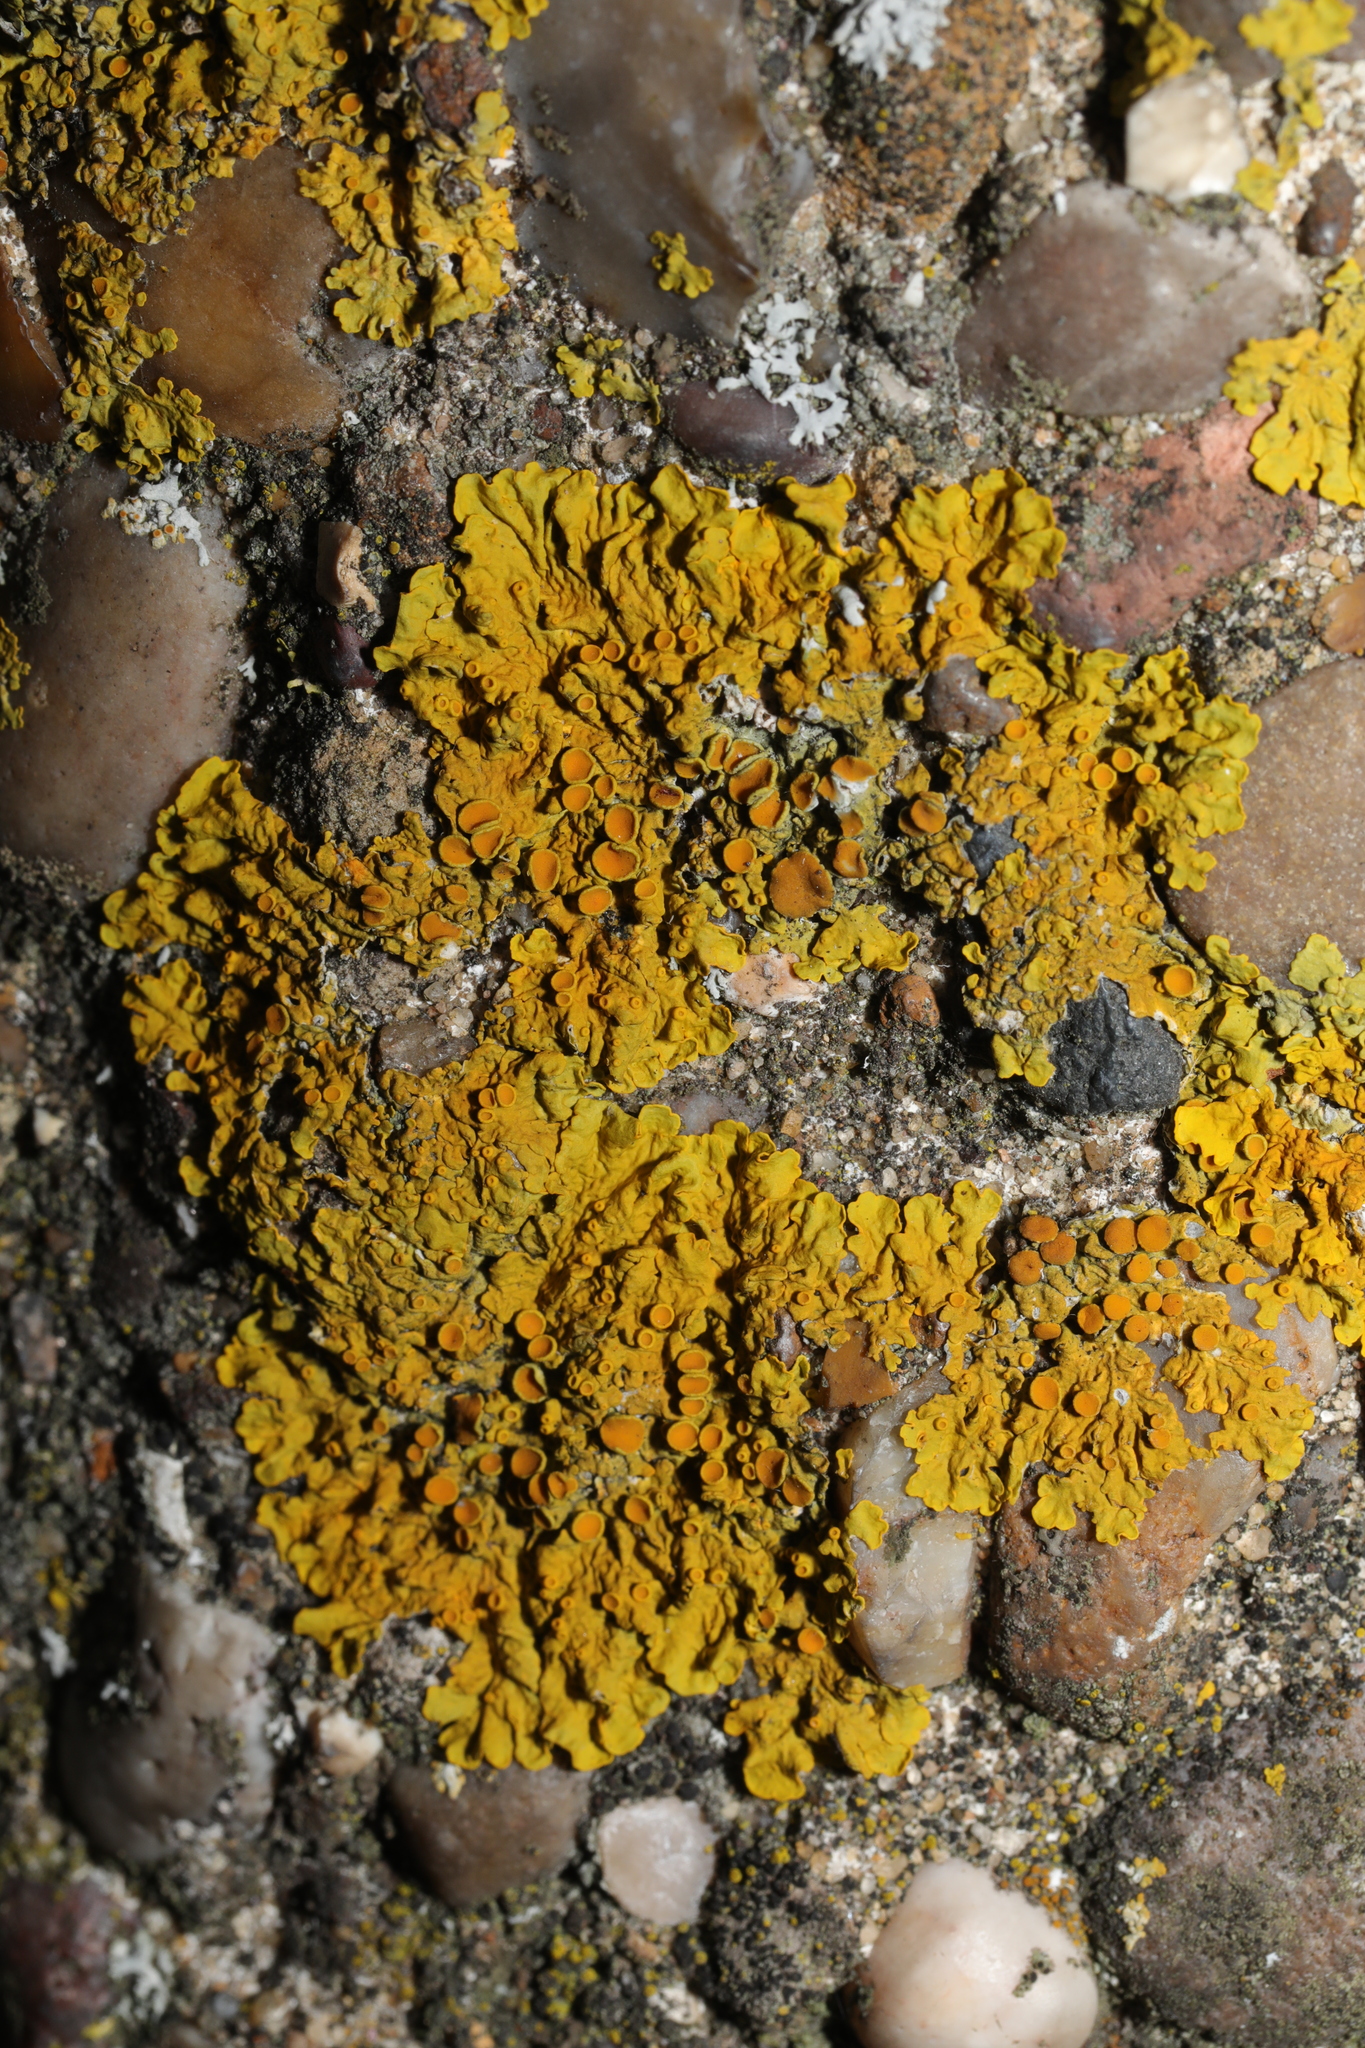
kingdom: Fungi
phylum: Ascomycota
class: Lecanoromycetes
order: Teloschistales
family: Teloschistaceae
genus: Xanthoria
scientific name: Xanthoria parietina
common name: Common orange lichen
